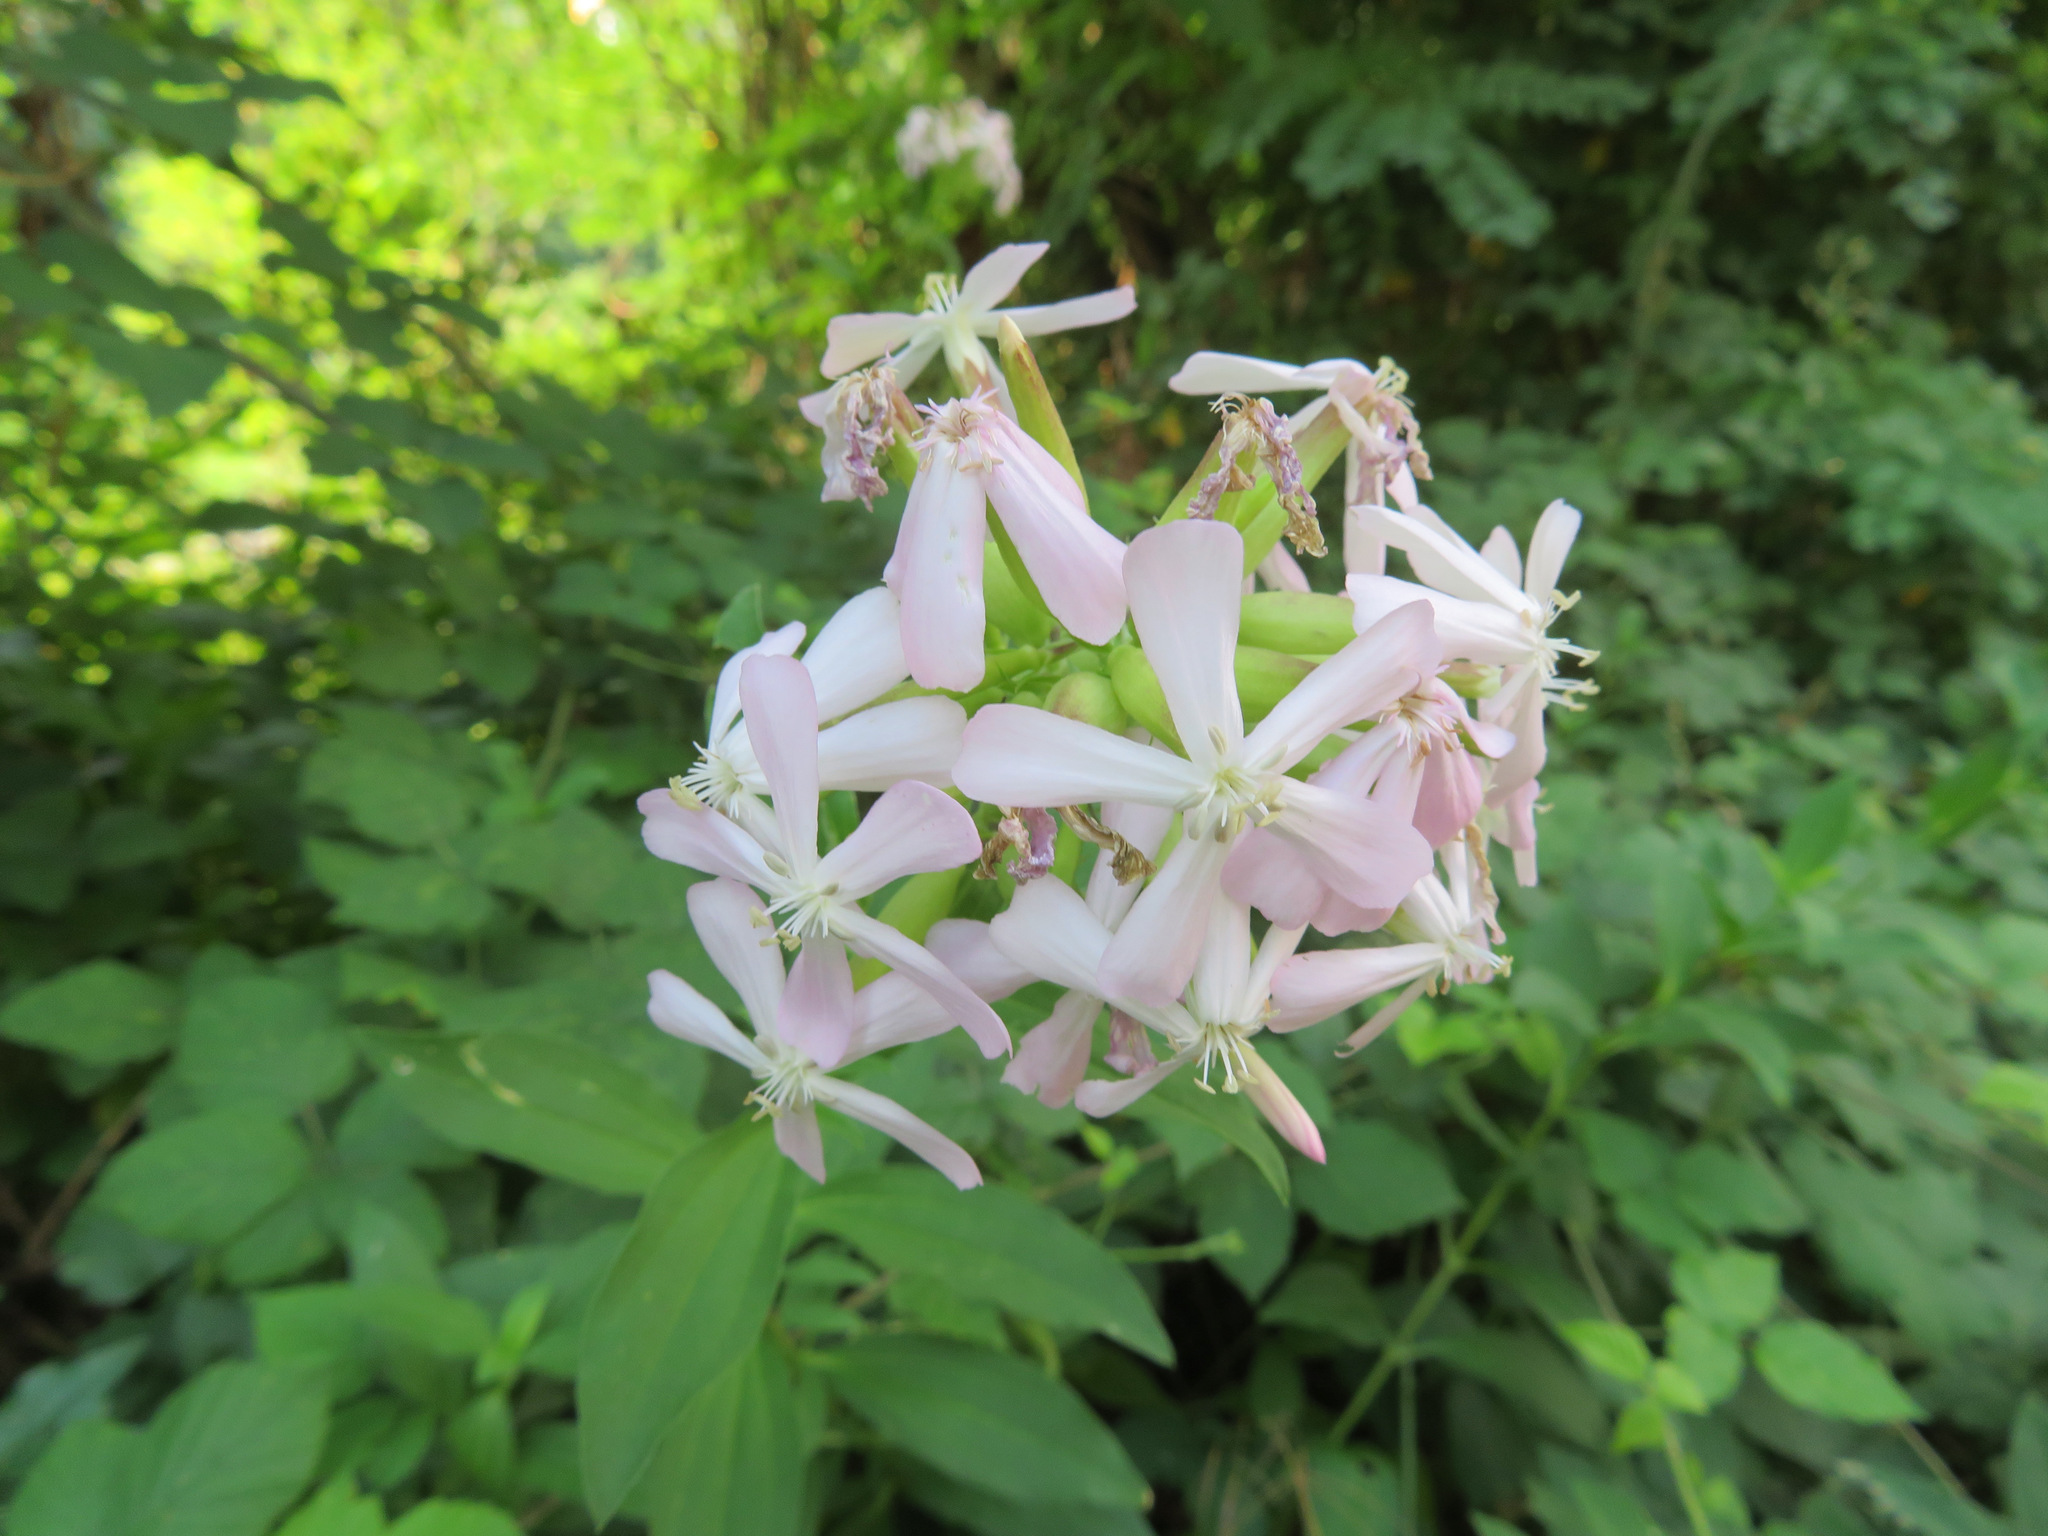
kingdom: Plantae
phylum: Tracheophyta
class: Magnoliopsida
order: Caryophyllales
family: Caryophyllaceae
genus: Saponaria
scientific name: Saponaria officinalis
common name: Soapwort
